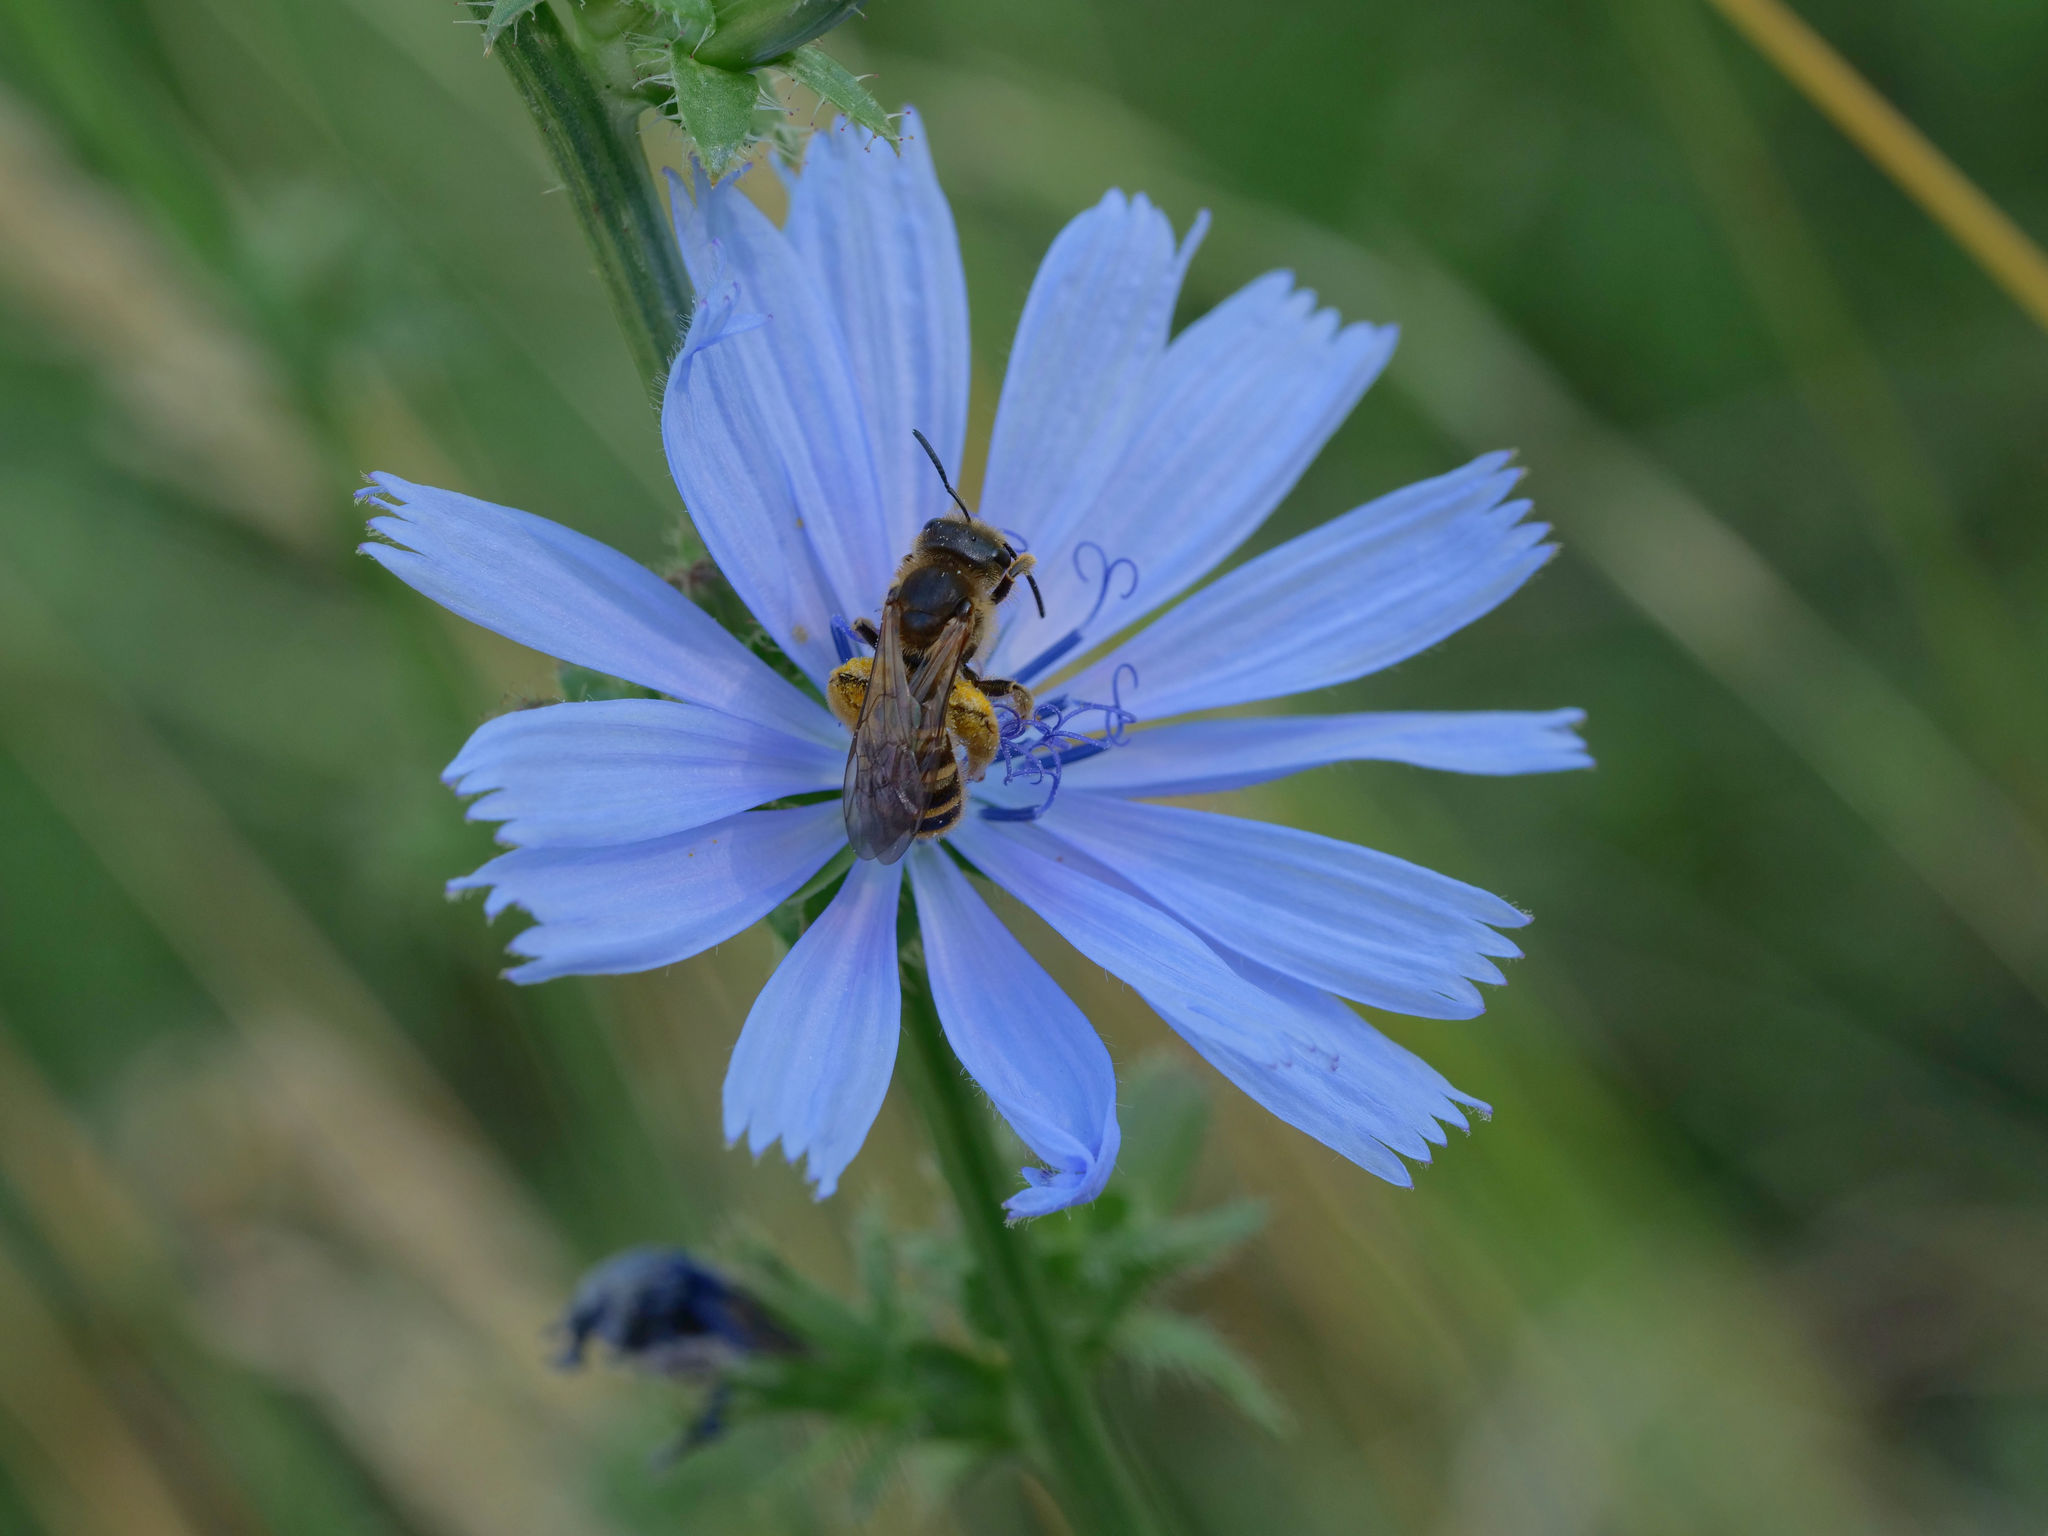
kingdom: Animalia
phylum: Arthropoda
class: Insecta
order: Hymenoptera
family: Halictidae
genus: Halictus
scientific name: Halictus scabiosae
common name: Great banded furrow bee
